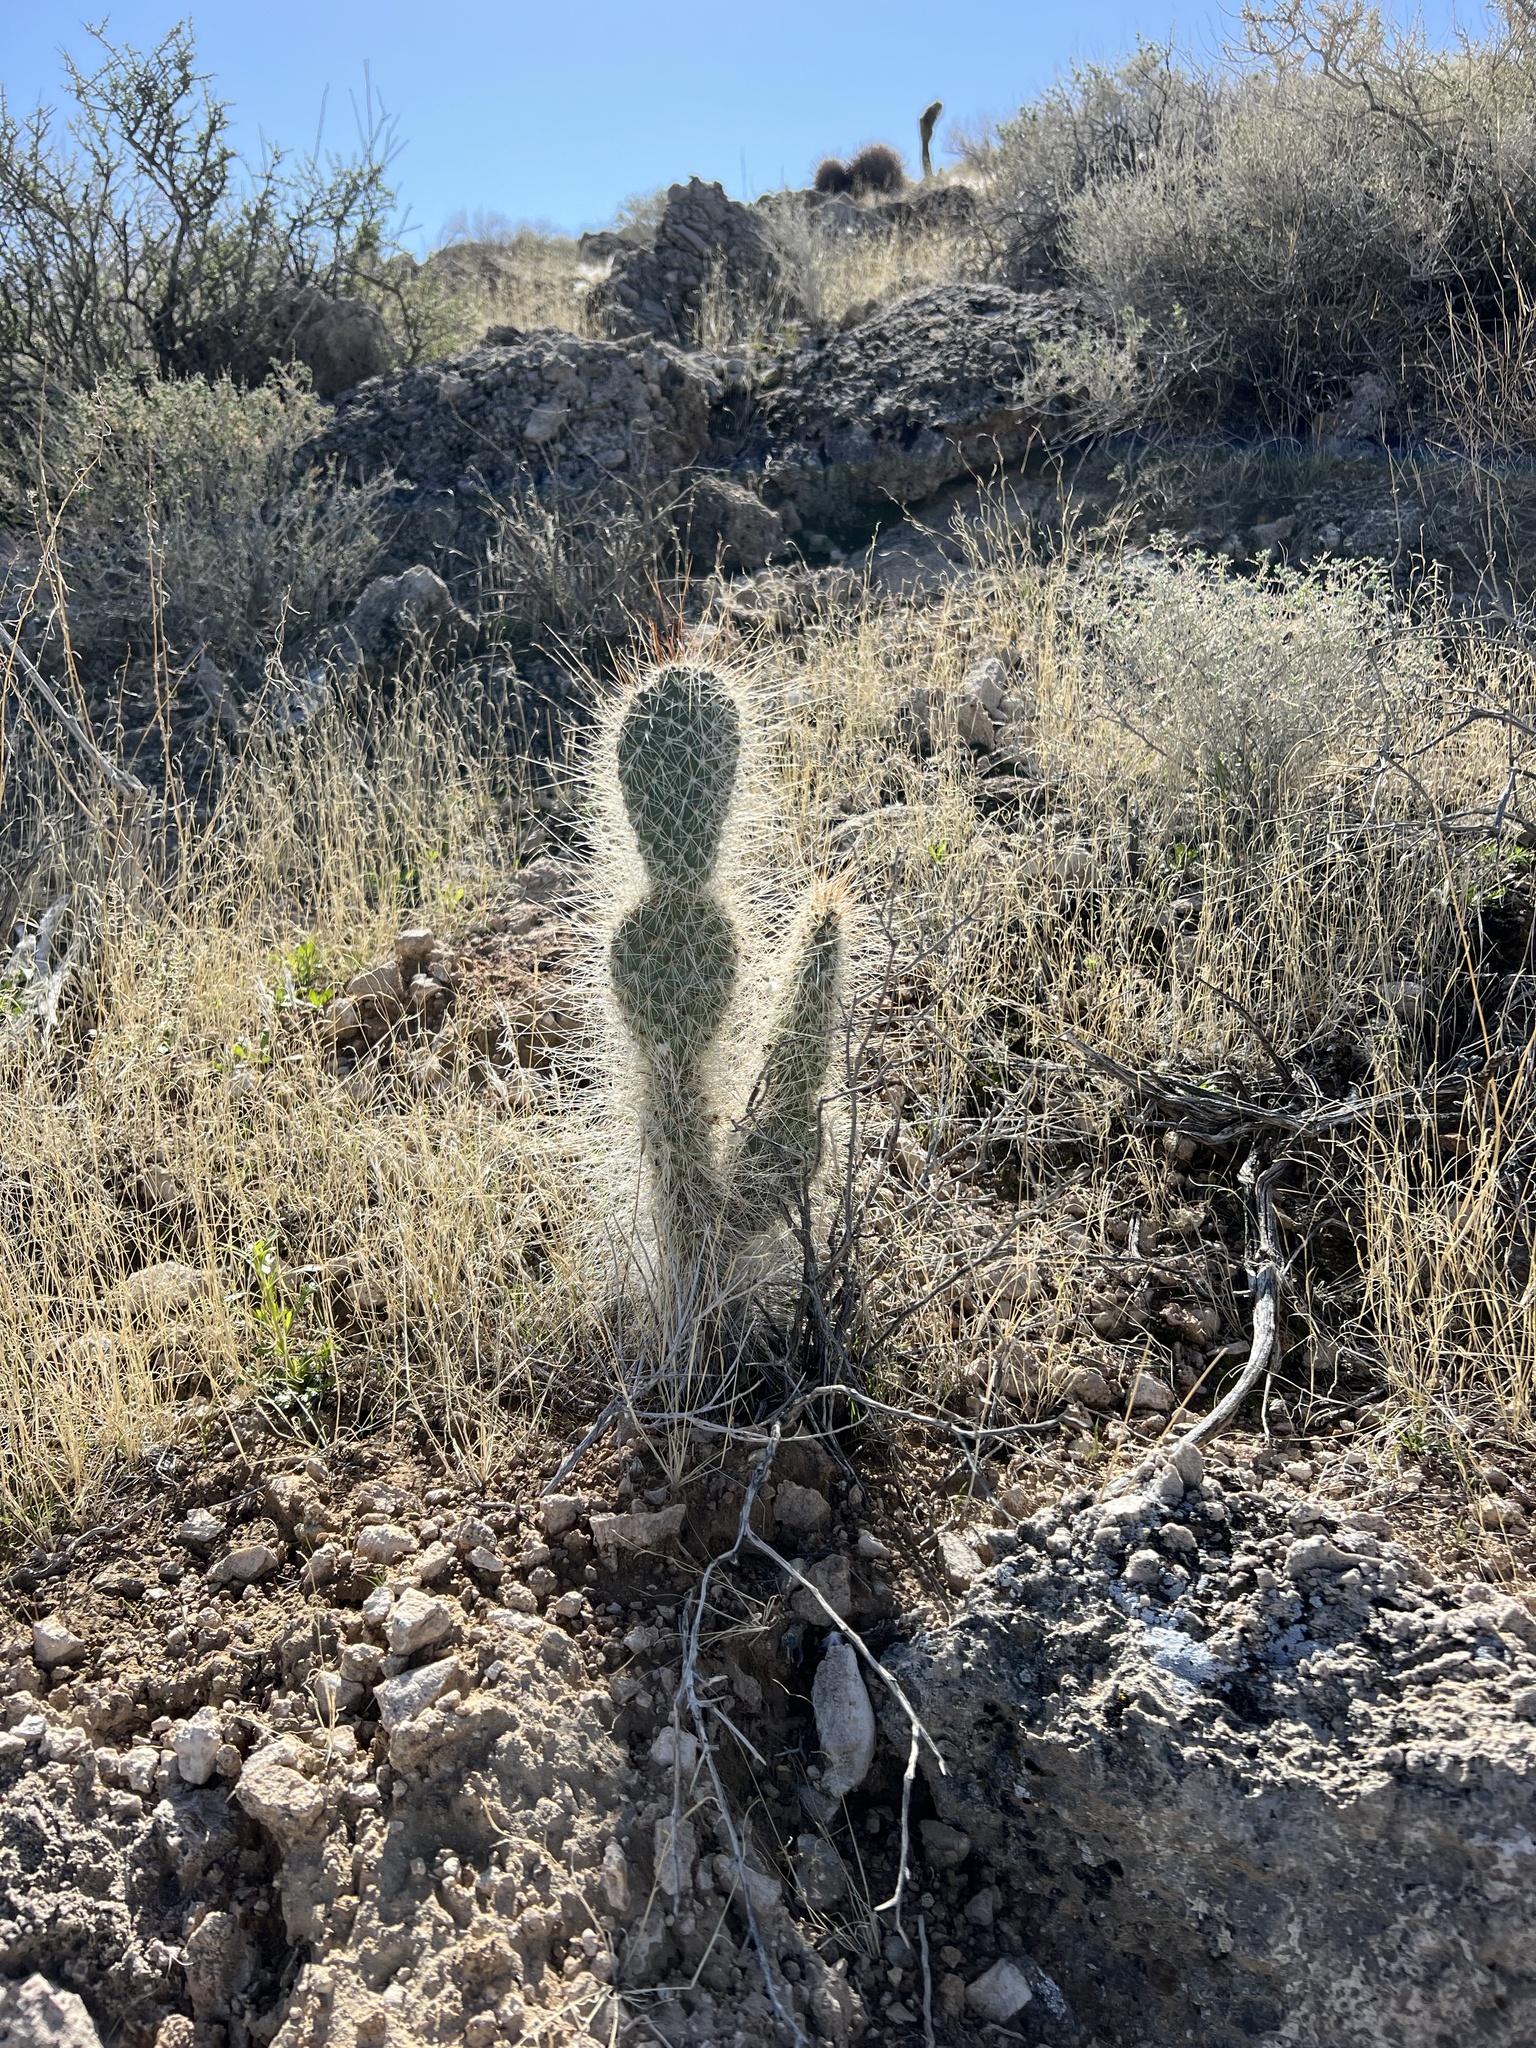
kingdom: Plantae
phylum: Tracheophyta
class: Magnoliopsida
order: Caryophyllales
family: Cactaceae
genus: Opuntia
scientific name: Opuntia polyacantha
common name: Plains prickly-pear
